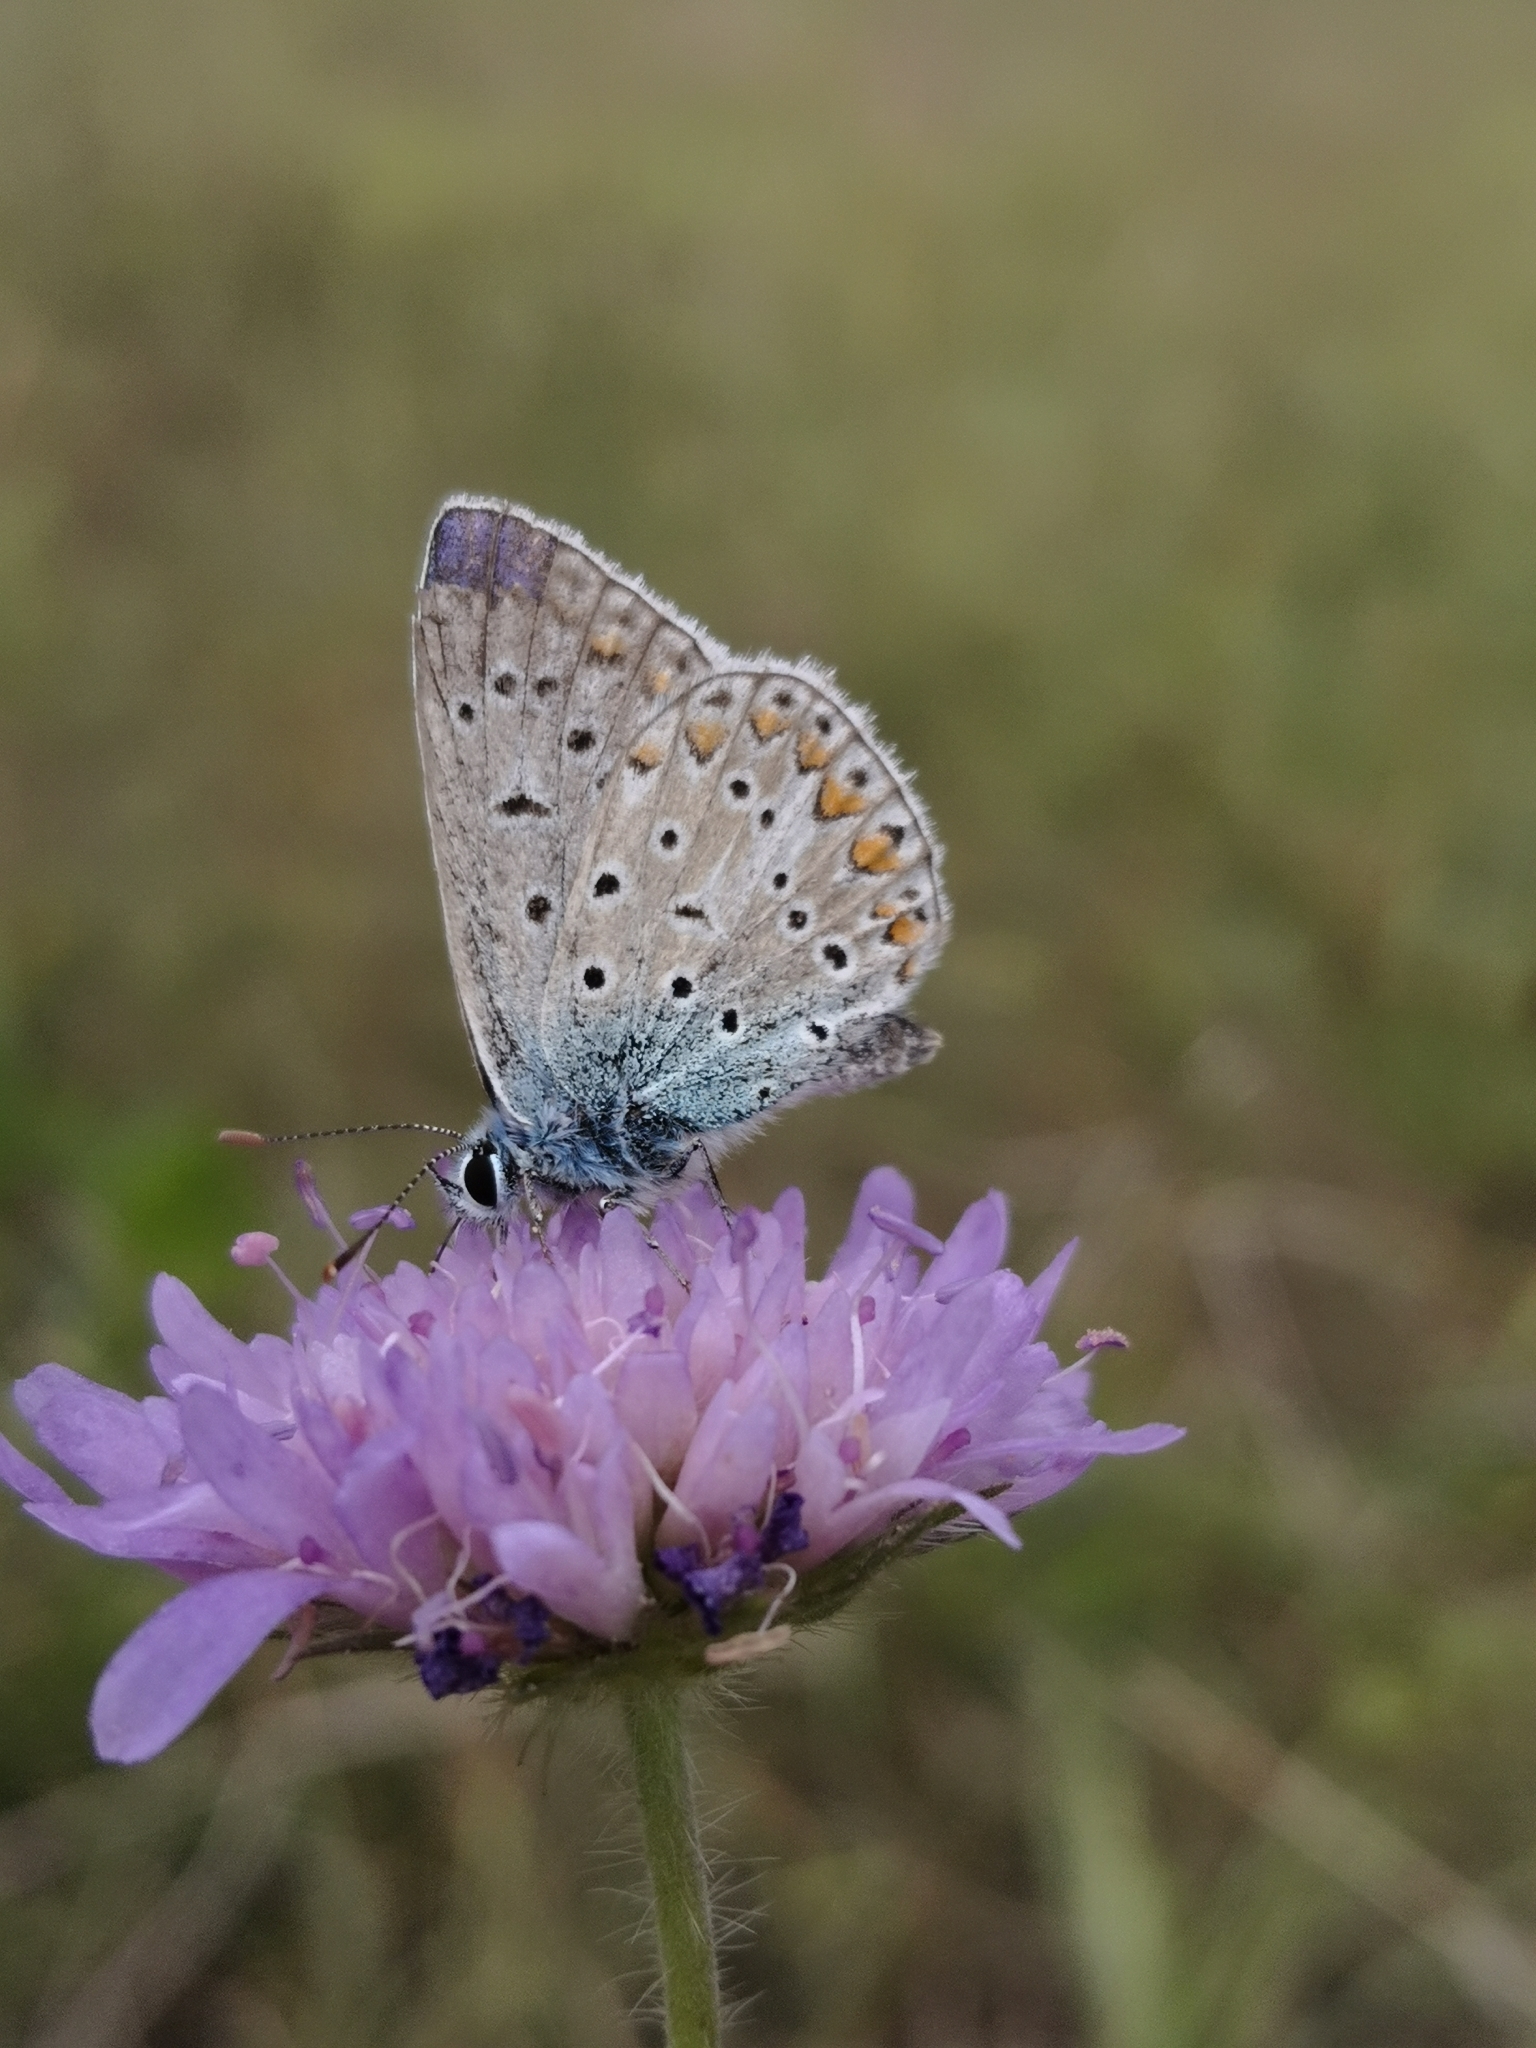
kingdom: Animalia
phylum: Arthropoda
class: Insecta
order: Lepidoptera
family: Lycaenidae
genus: Polyommatus
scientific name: Polyommatus icarus
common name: Common blue
